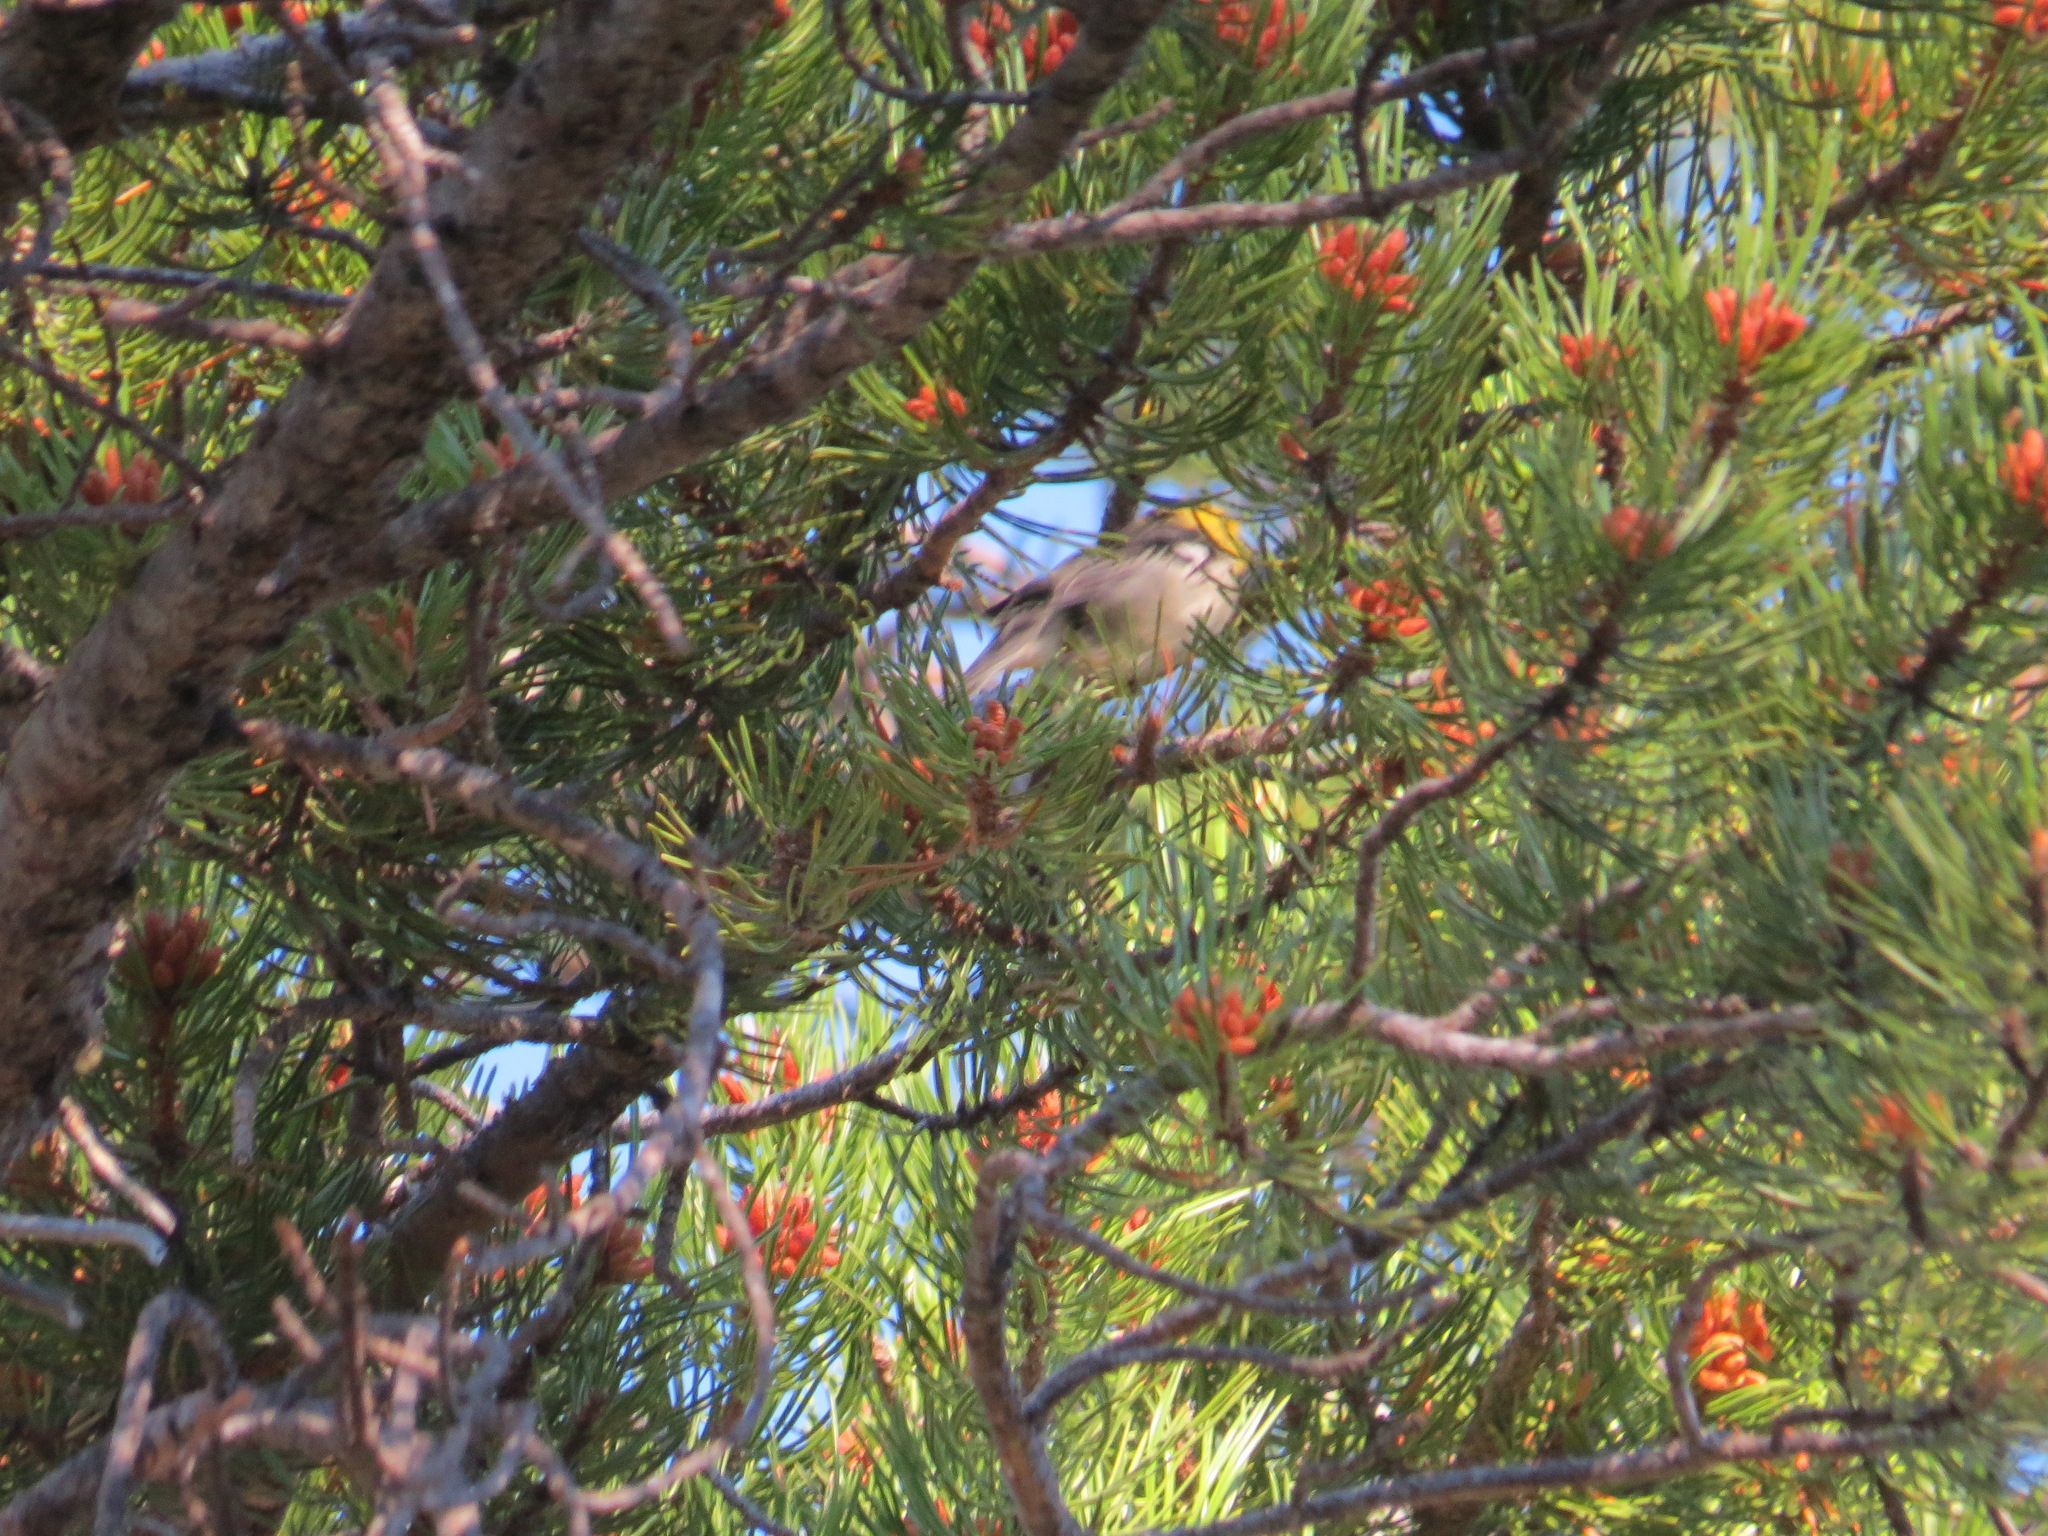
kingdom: Animalia
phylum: Chordata
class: Aves
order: Passeriformes
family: Parulidae
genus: Setophaga
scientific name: Setophaga occidentalis
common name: Hermit warbler
